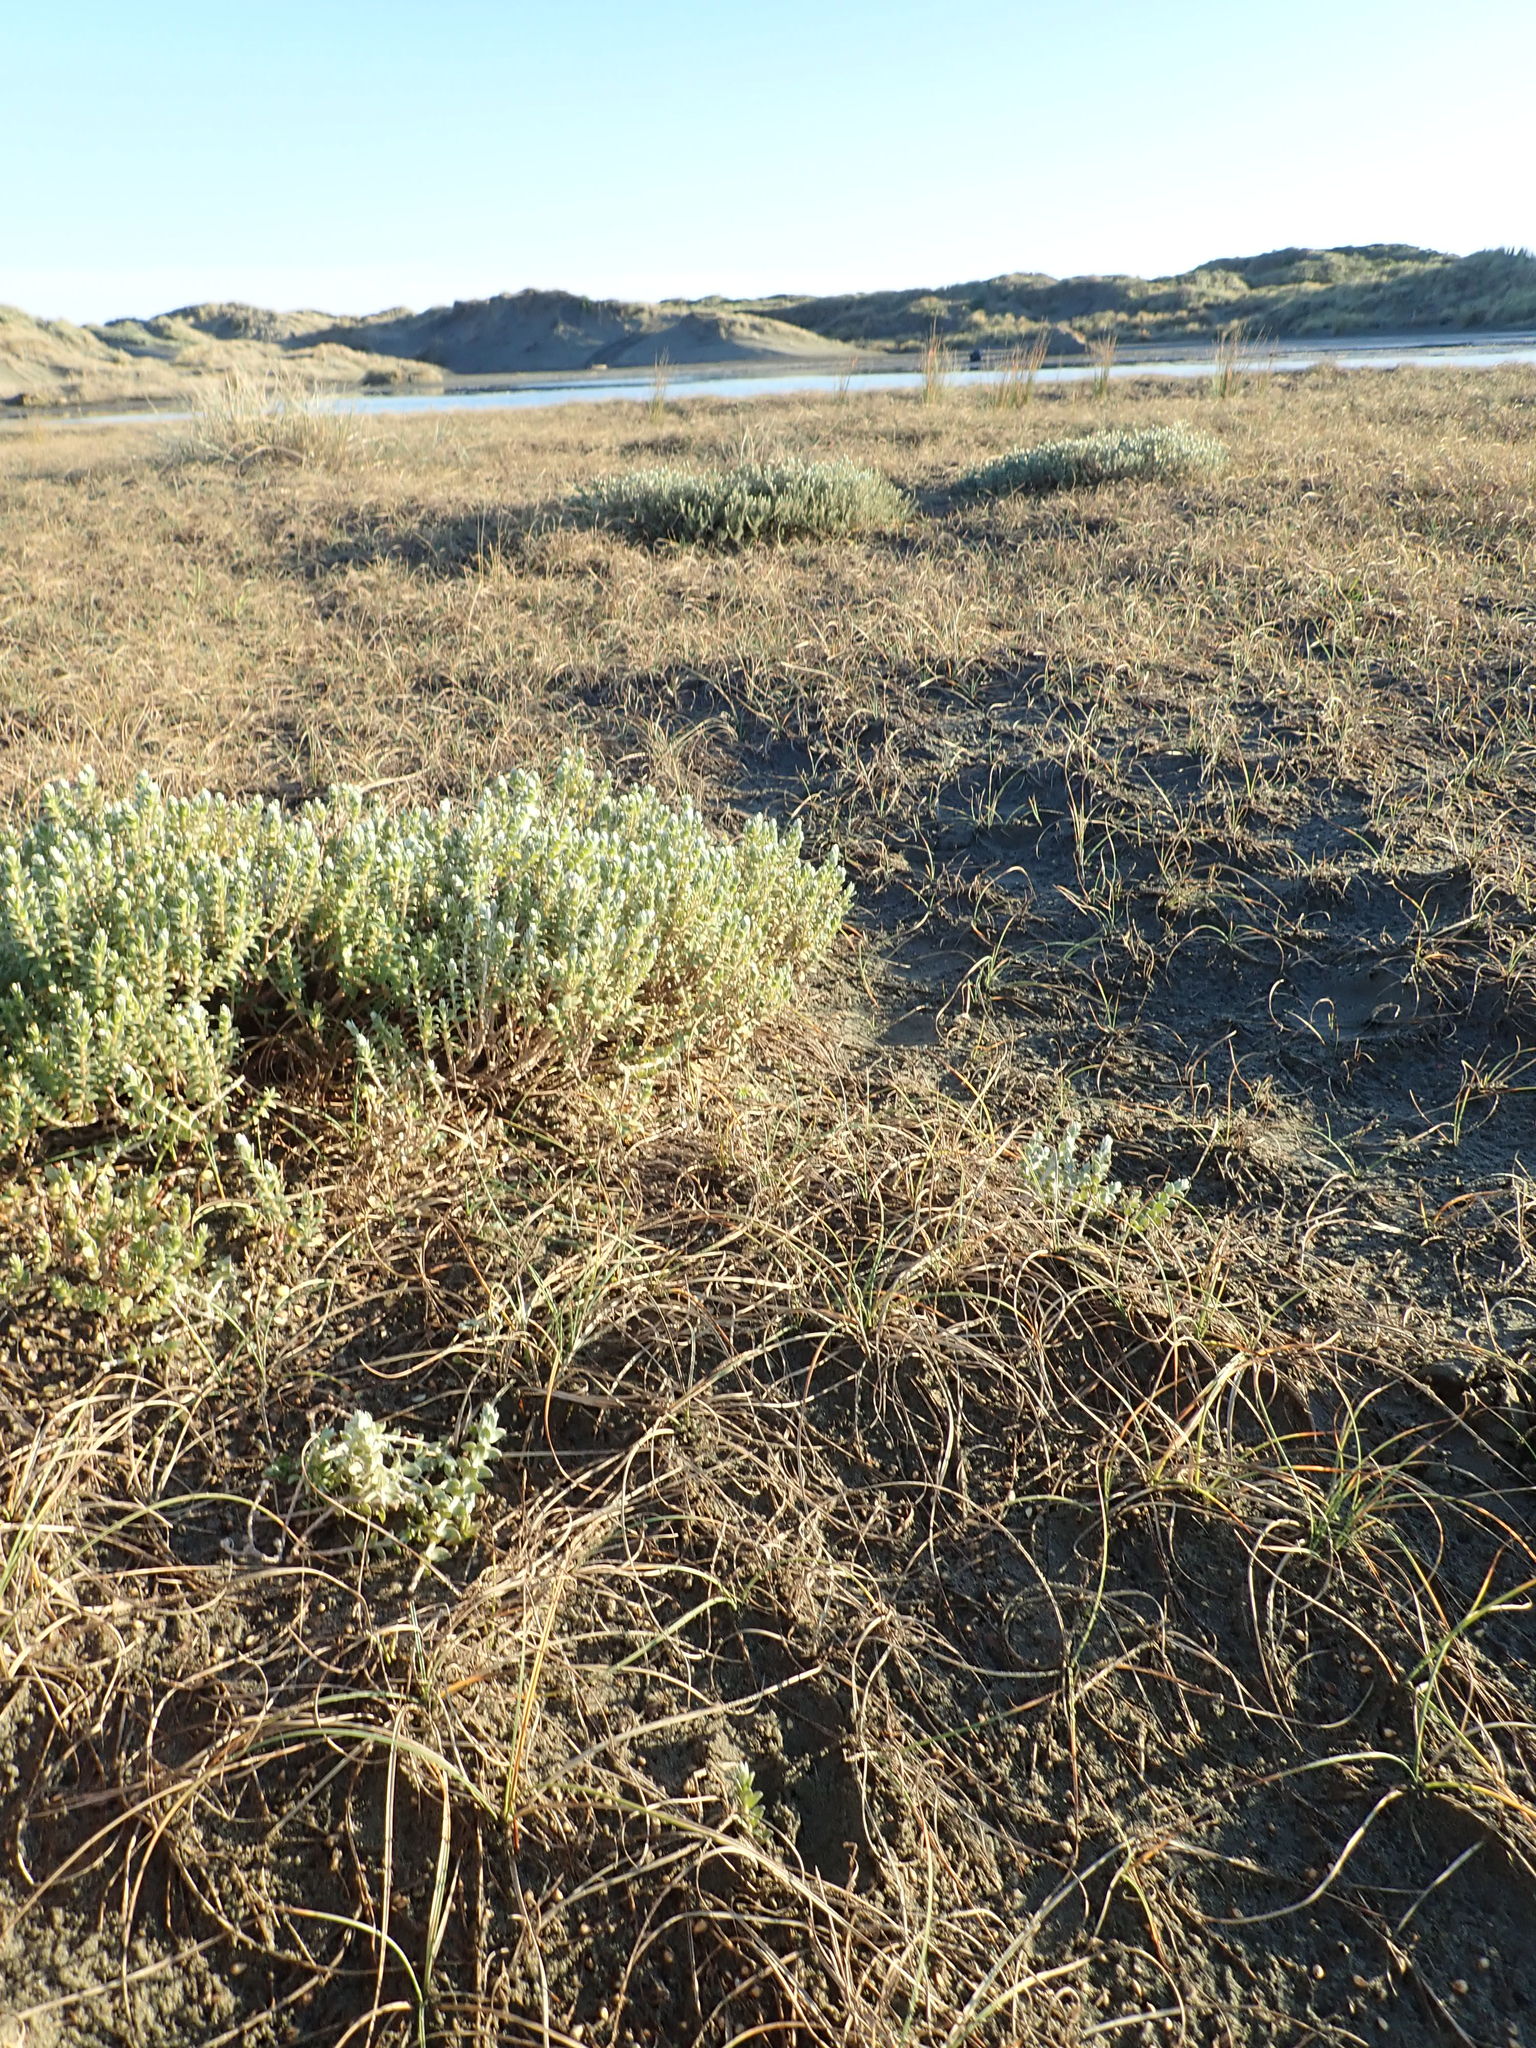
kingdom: Plantae
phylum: Tracheophyta
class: Magnoliopsida
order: Malvales
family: Thymelaeaceae
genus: Pimelea
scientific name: Pimelea villosa
